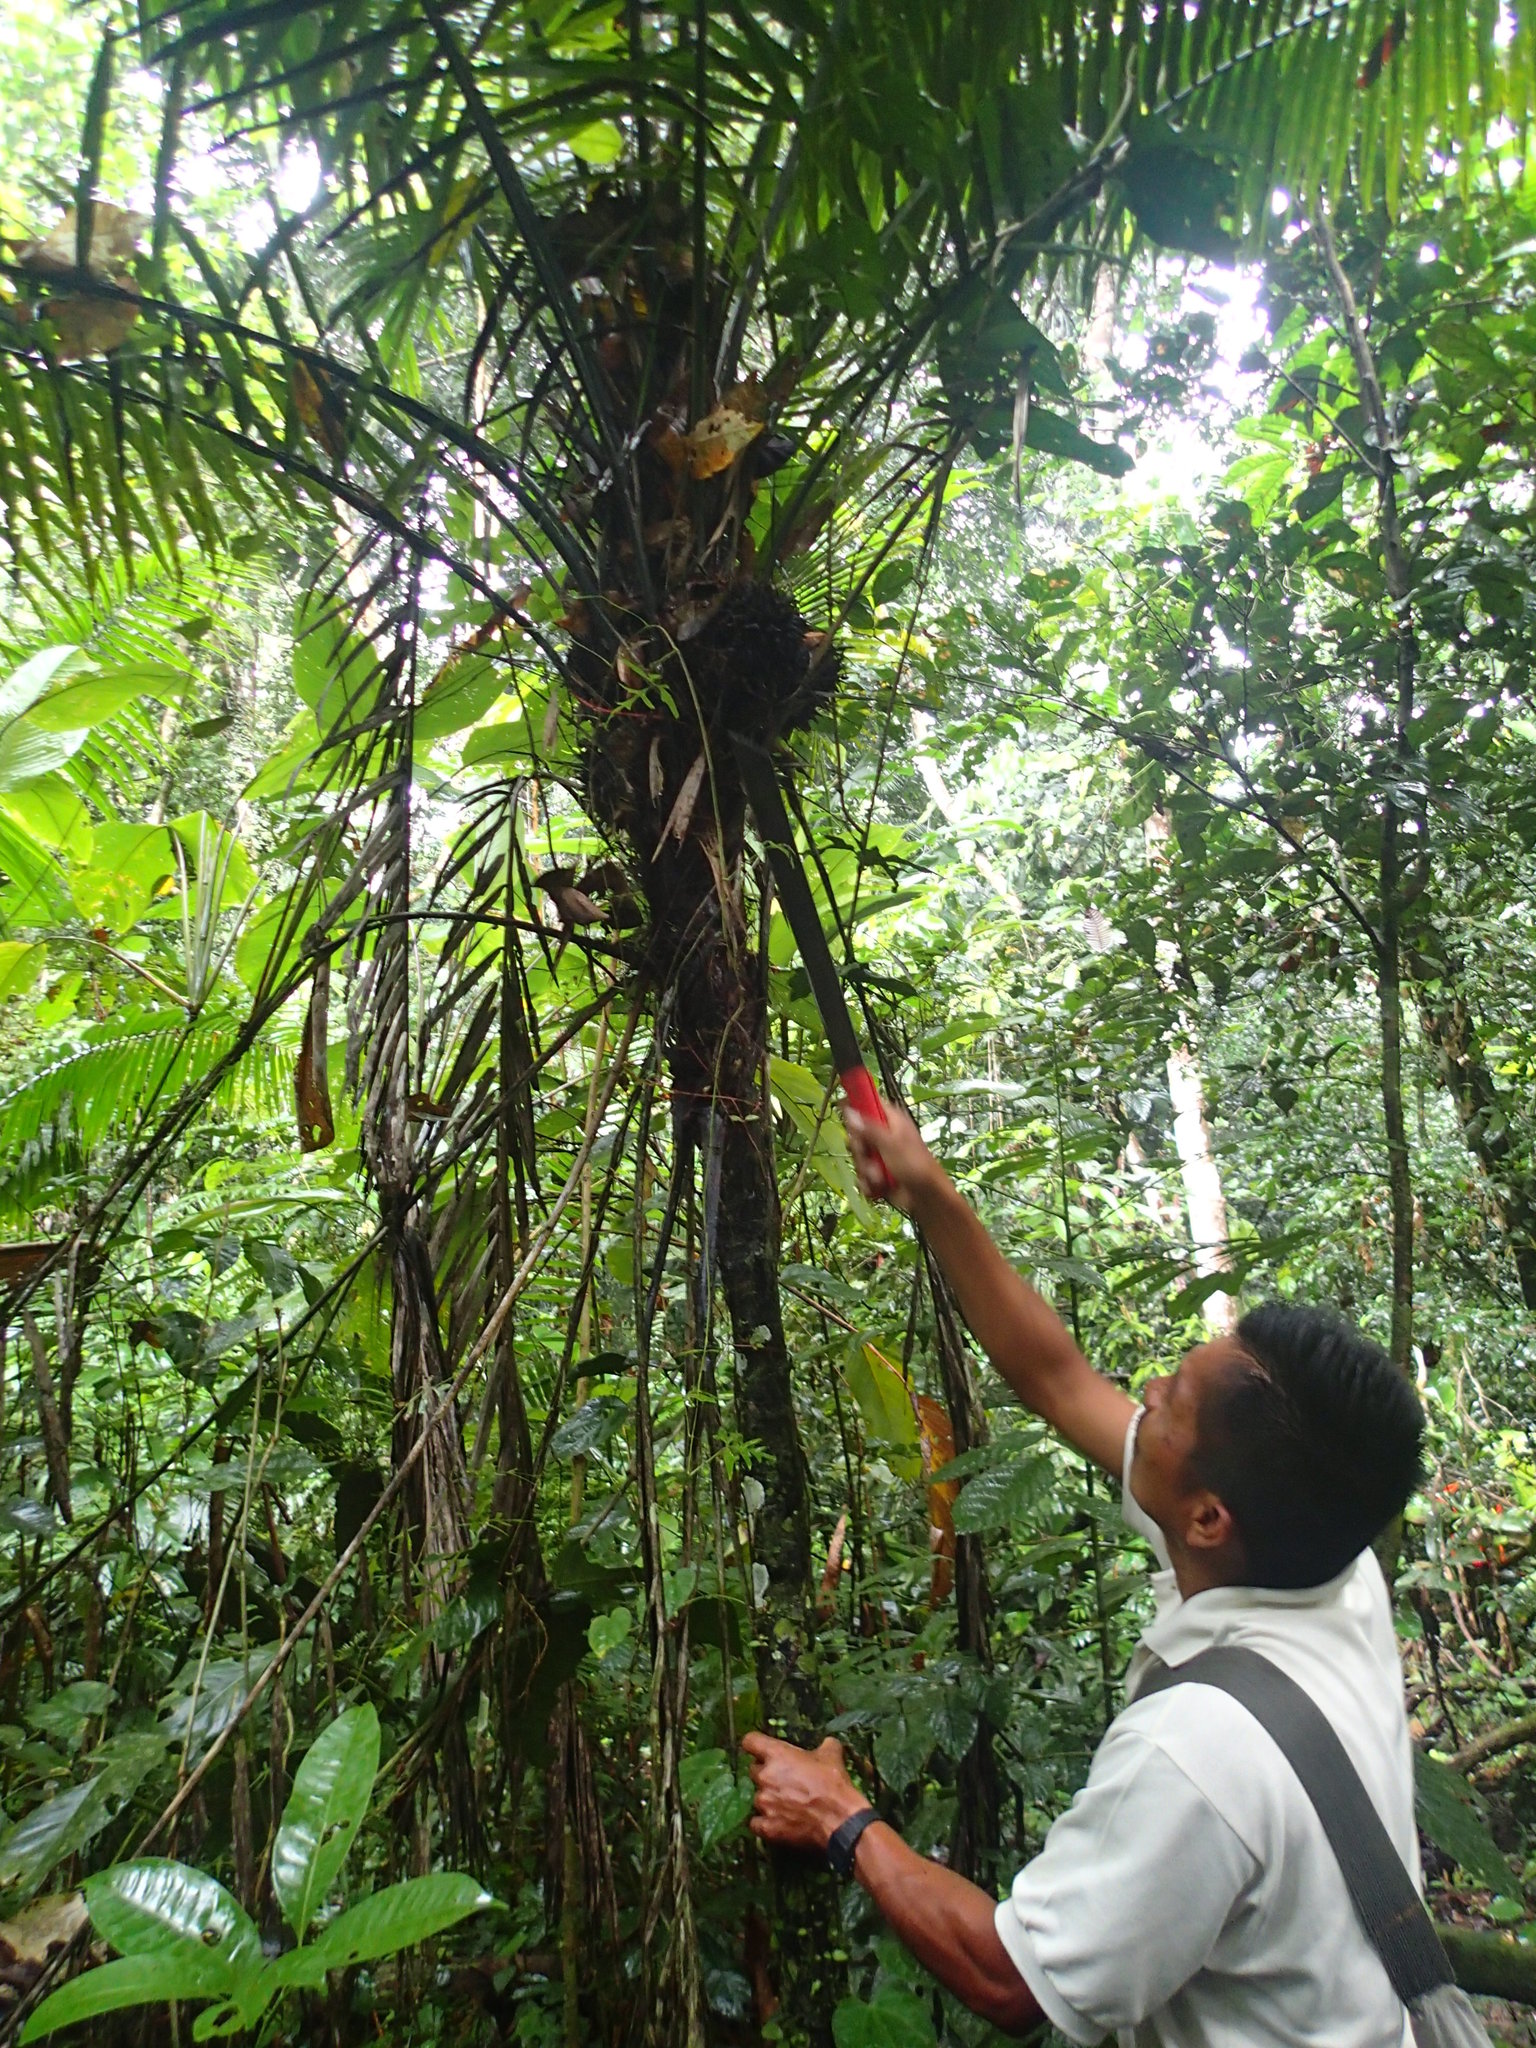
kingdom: Plantae
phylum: Tracheophyta
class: Liliopsida
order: Arecales
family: Arecaceae
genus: Phytelephas
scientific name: Phytelephas tenuicaulis
